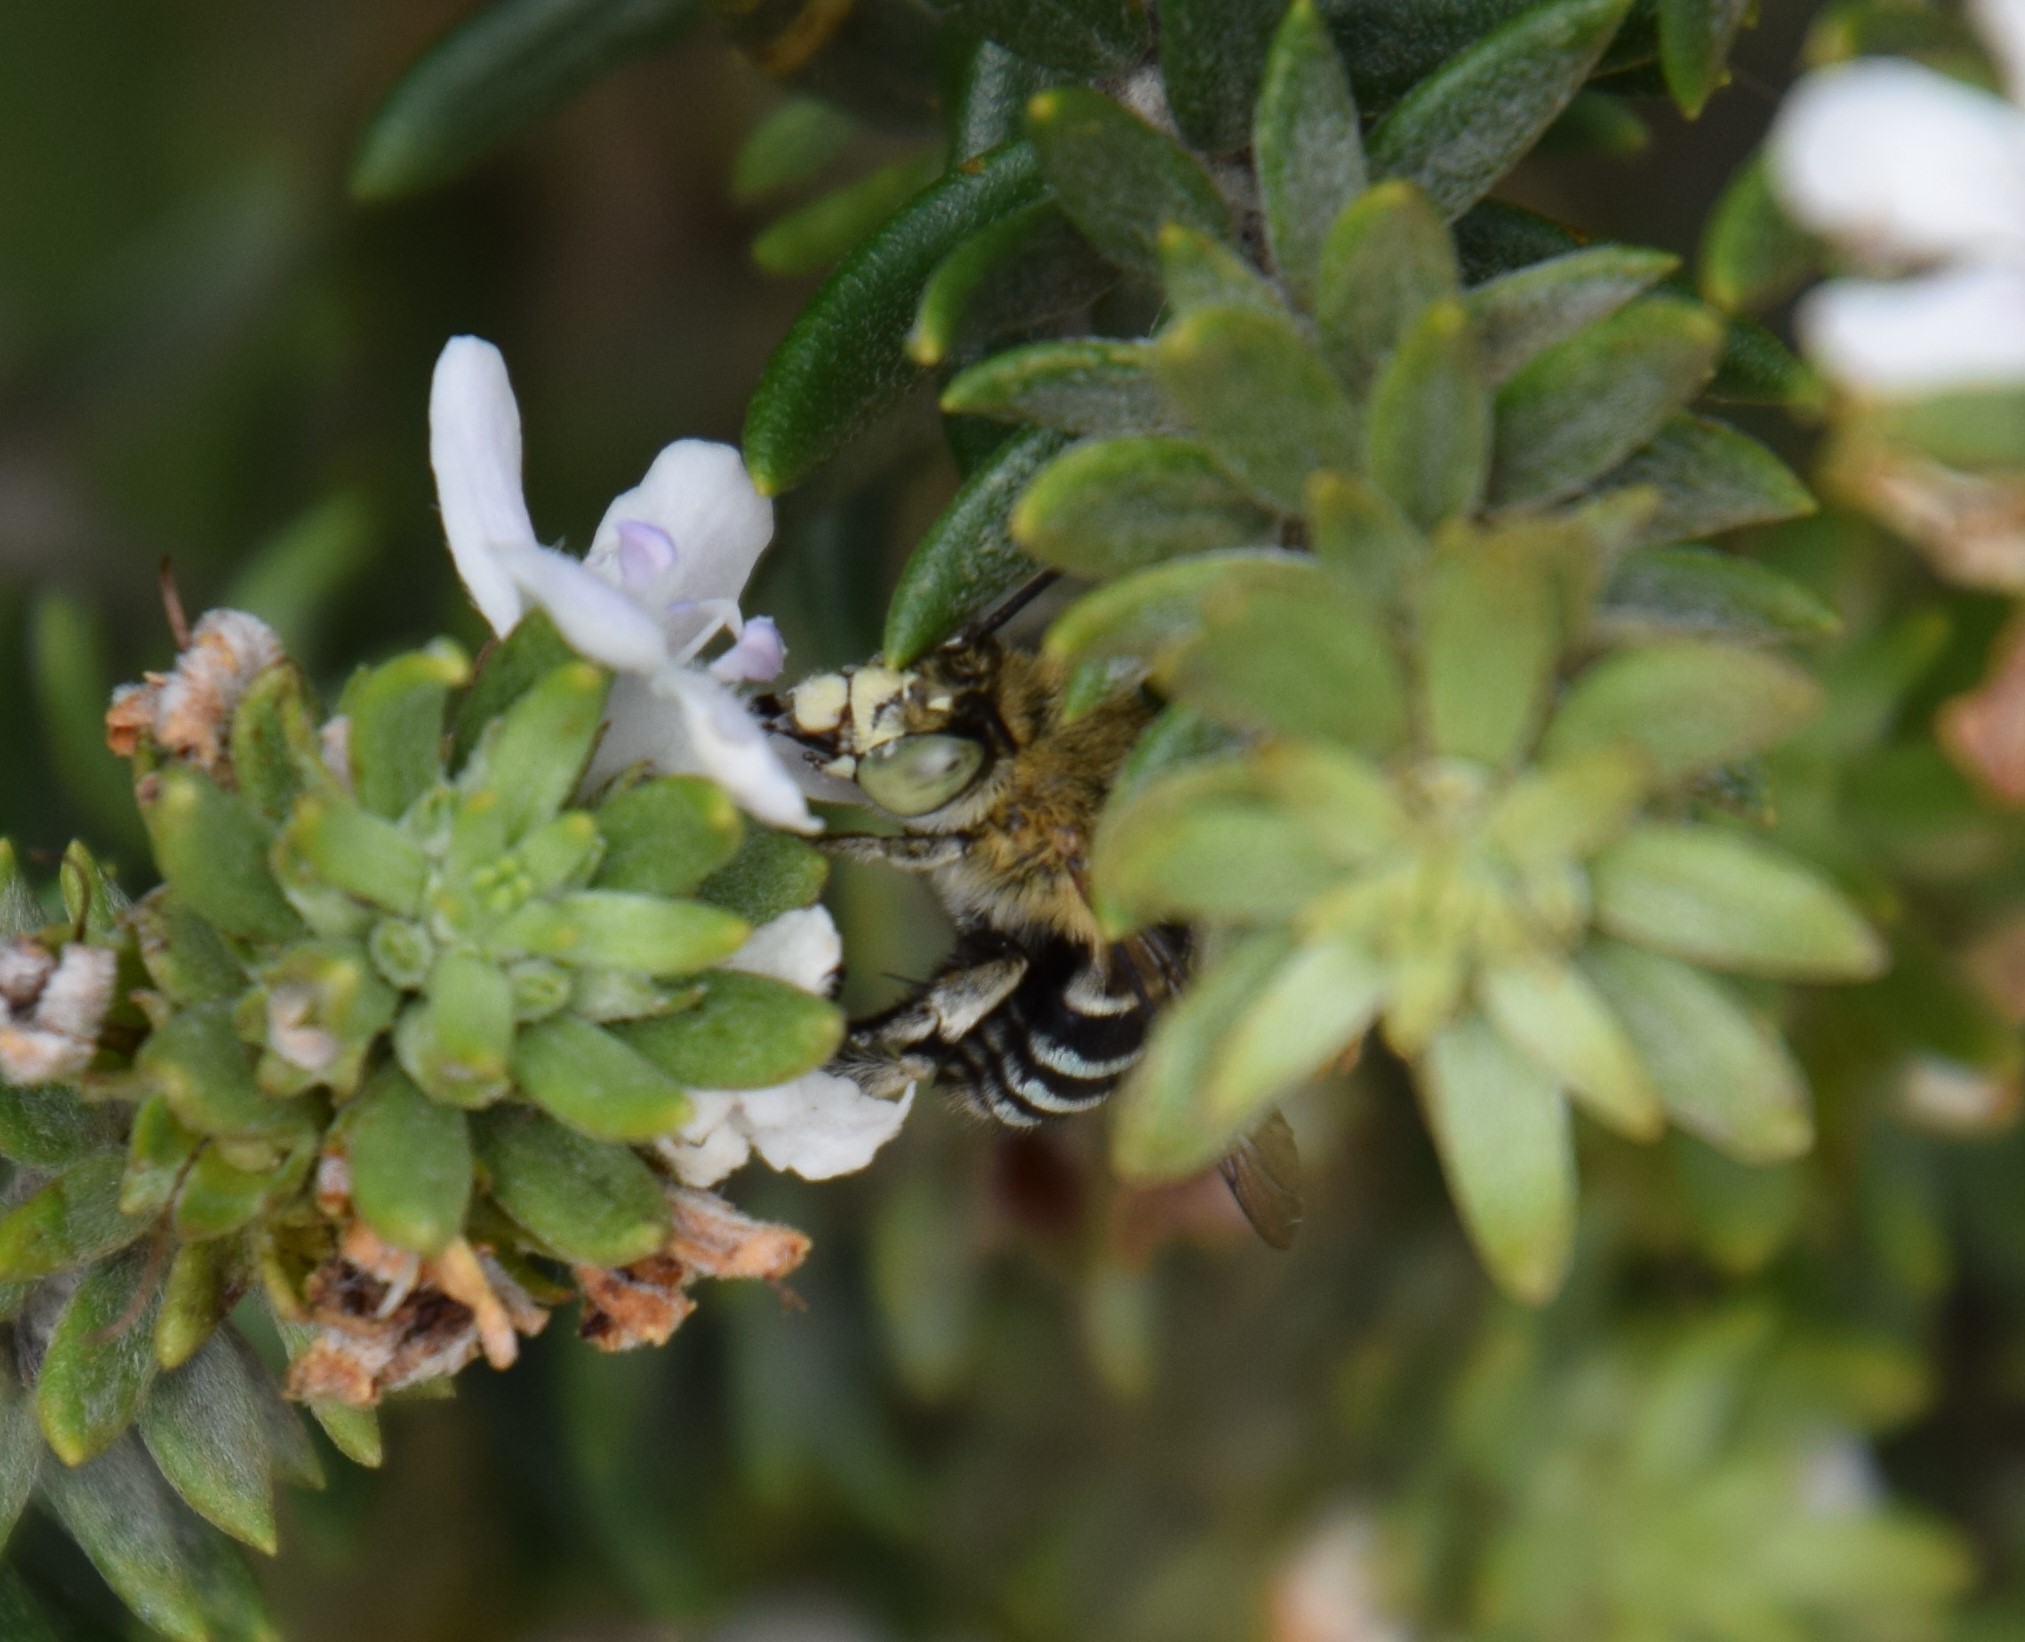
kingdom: Plantae
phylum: Tracheophyta
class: Magnoliopsida
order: Lamiales
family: Lamiaceae
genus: Westringia
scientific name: Westringia fruticosa
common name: Coastal-rosemary
